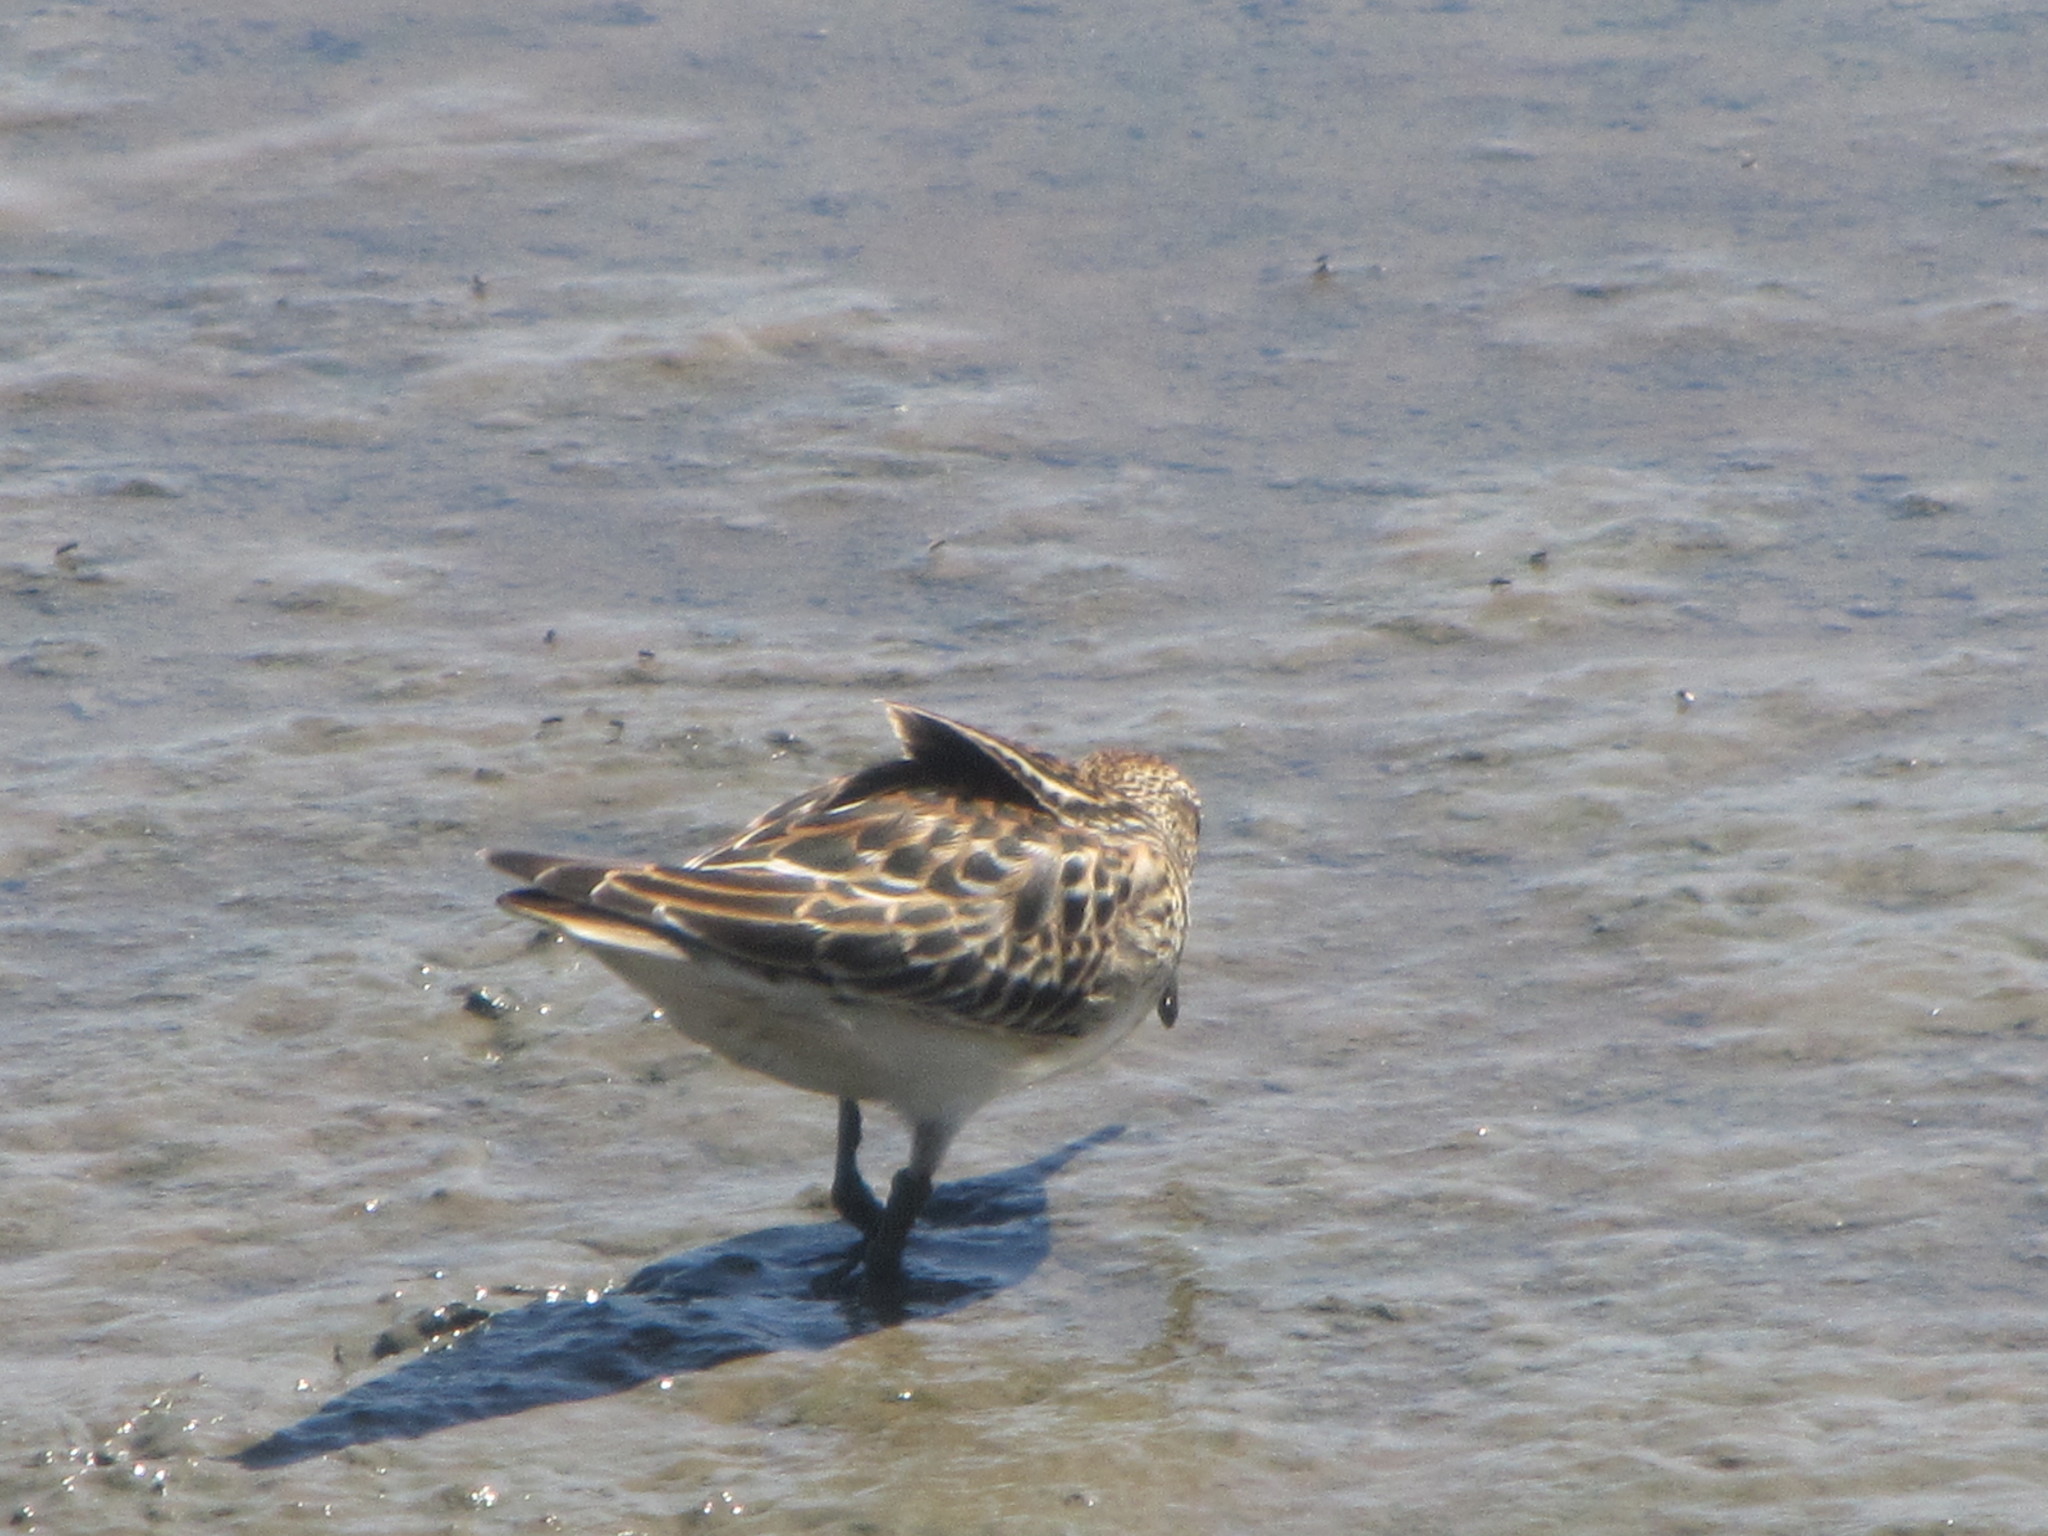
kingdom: Animalia
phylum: Chordata
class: Aves
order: Charadriiformes
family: Scolopacidae
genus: Calidris
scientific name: Calidris melanotos
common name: Pectoral sandpiper
